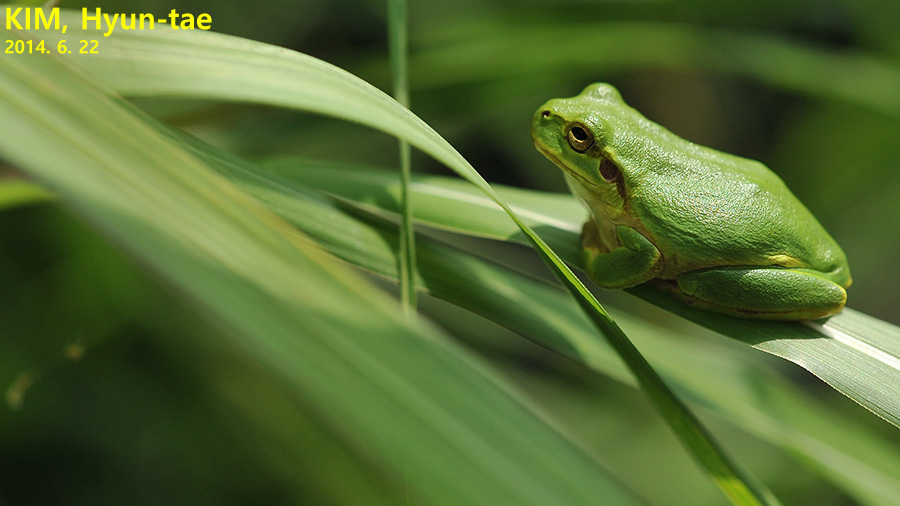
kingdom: Animalia
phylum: Chordata
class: Amphibia
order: Anura
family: Hylidae
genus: Dryophytes
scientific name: Dryophytes japonicus
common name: Japanese treefrog
